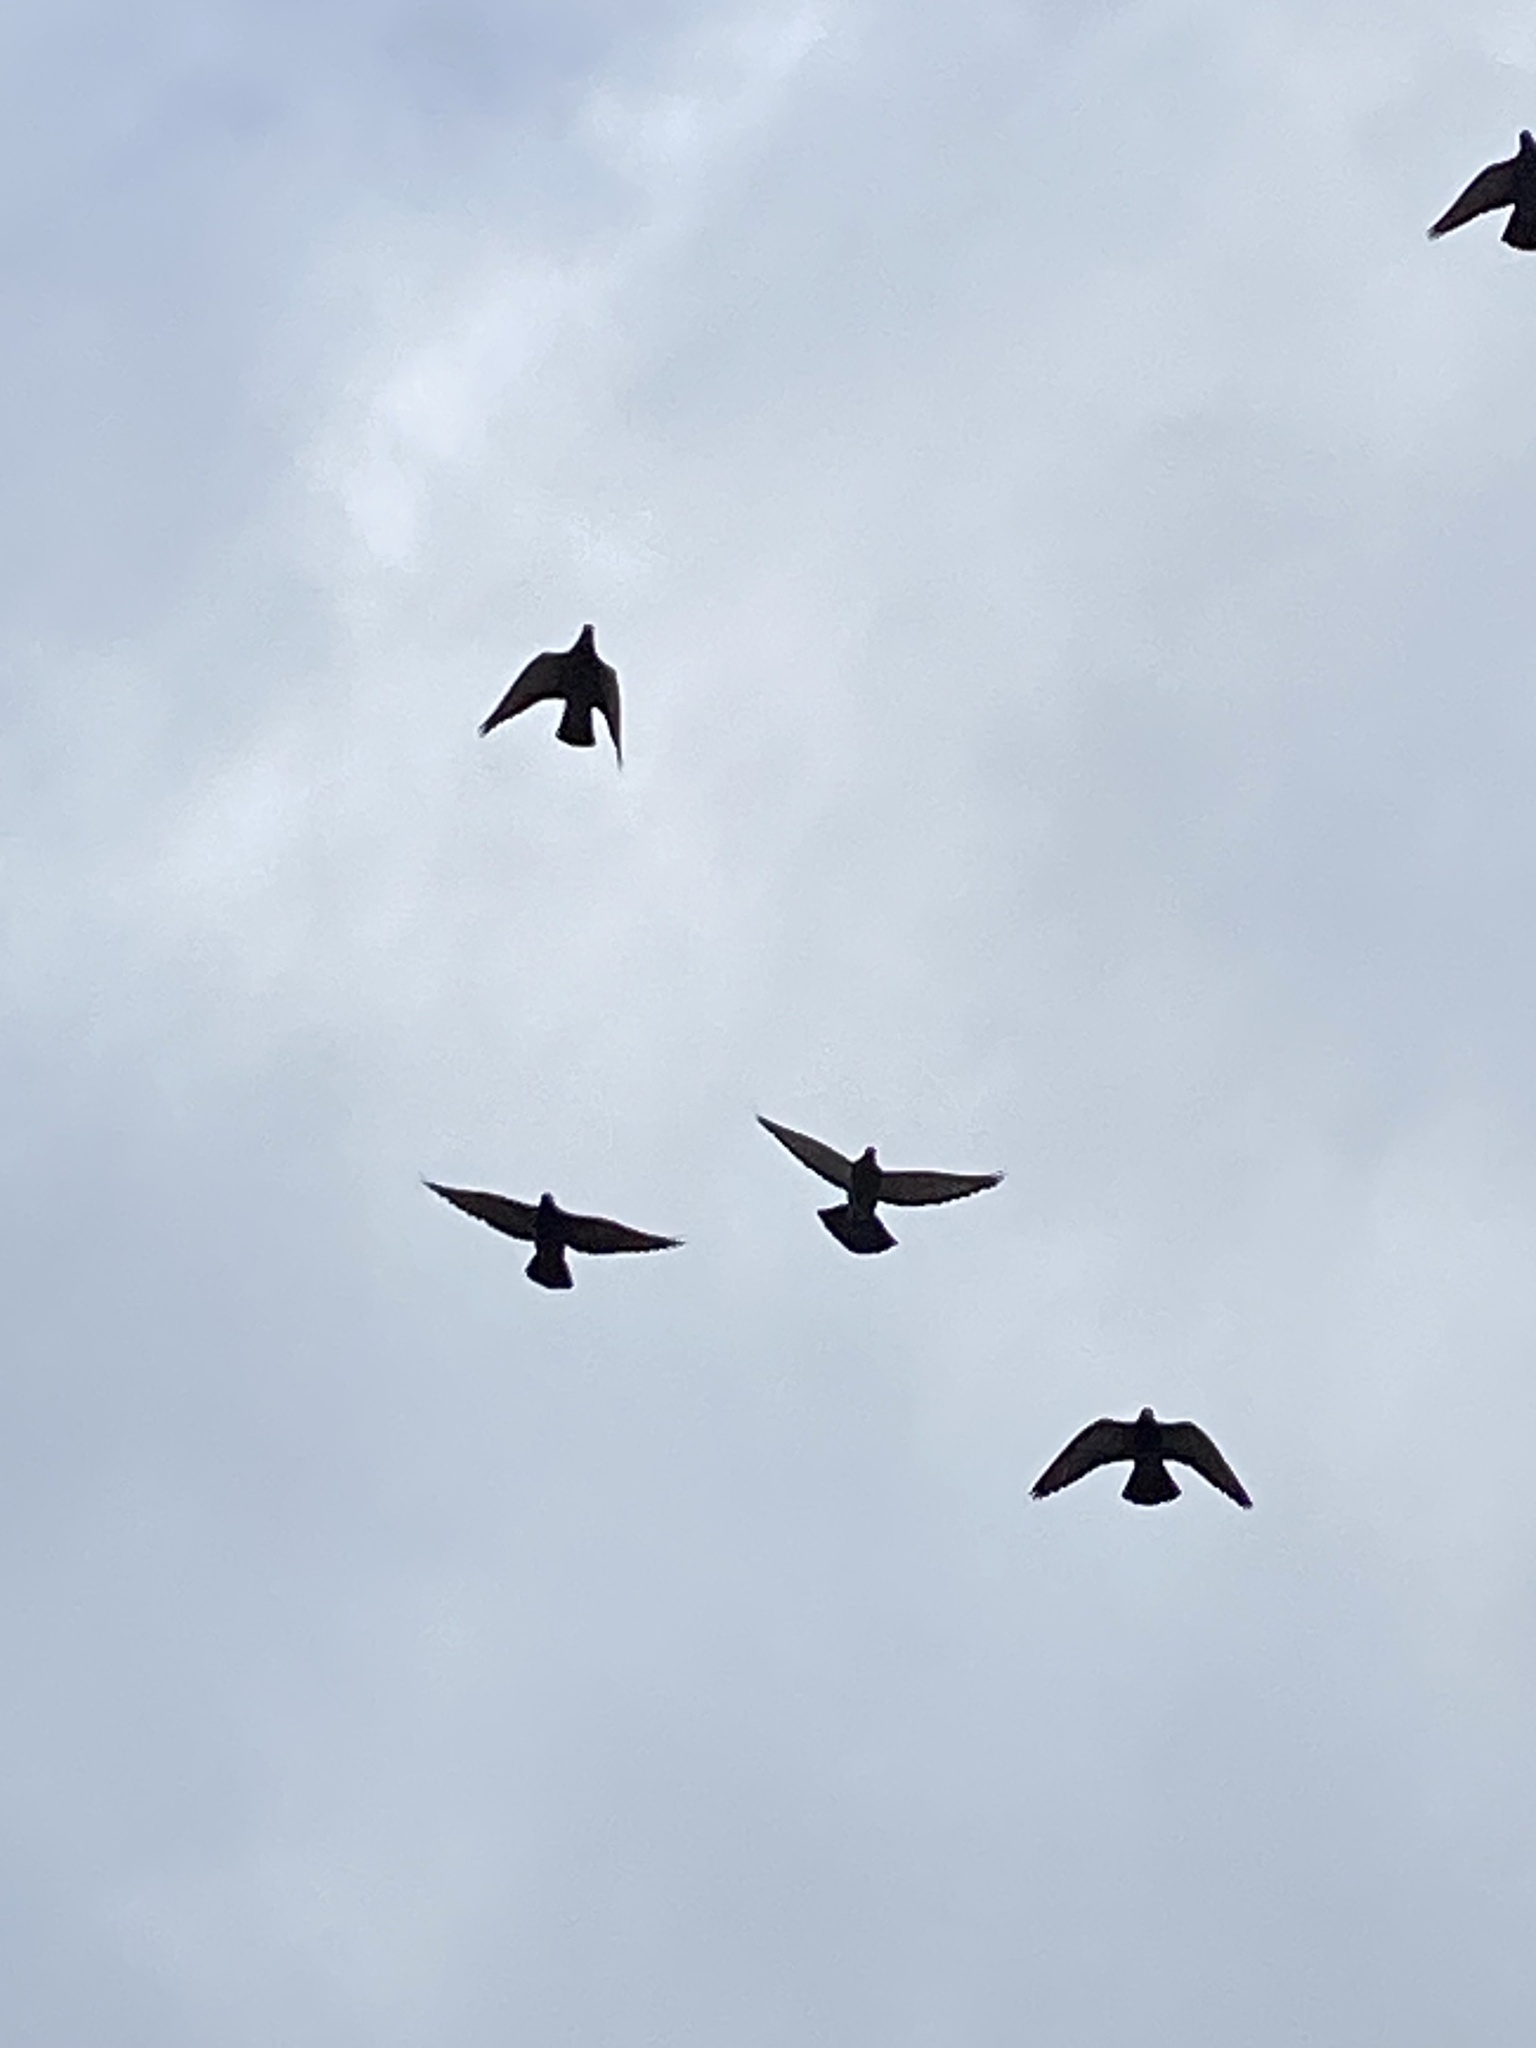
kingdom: Animalia
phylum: Chordata
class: Aves
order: Columbiformes
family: Columbidae
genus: Columba
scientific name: Columba livia
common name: Rock pigeon
